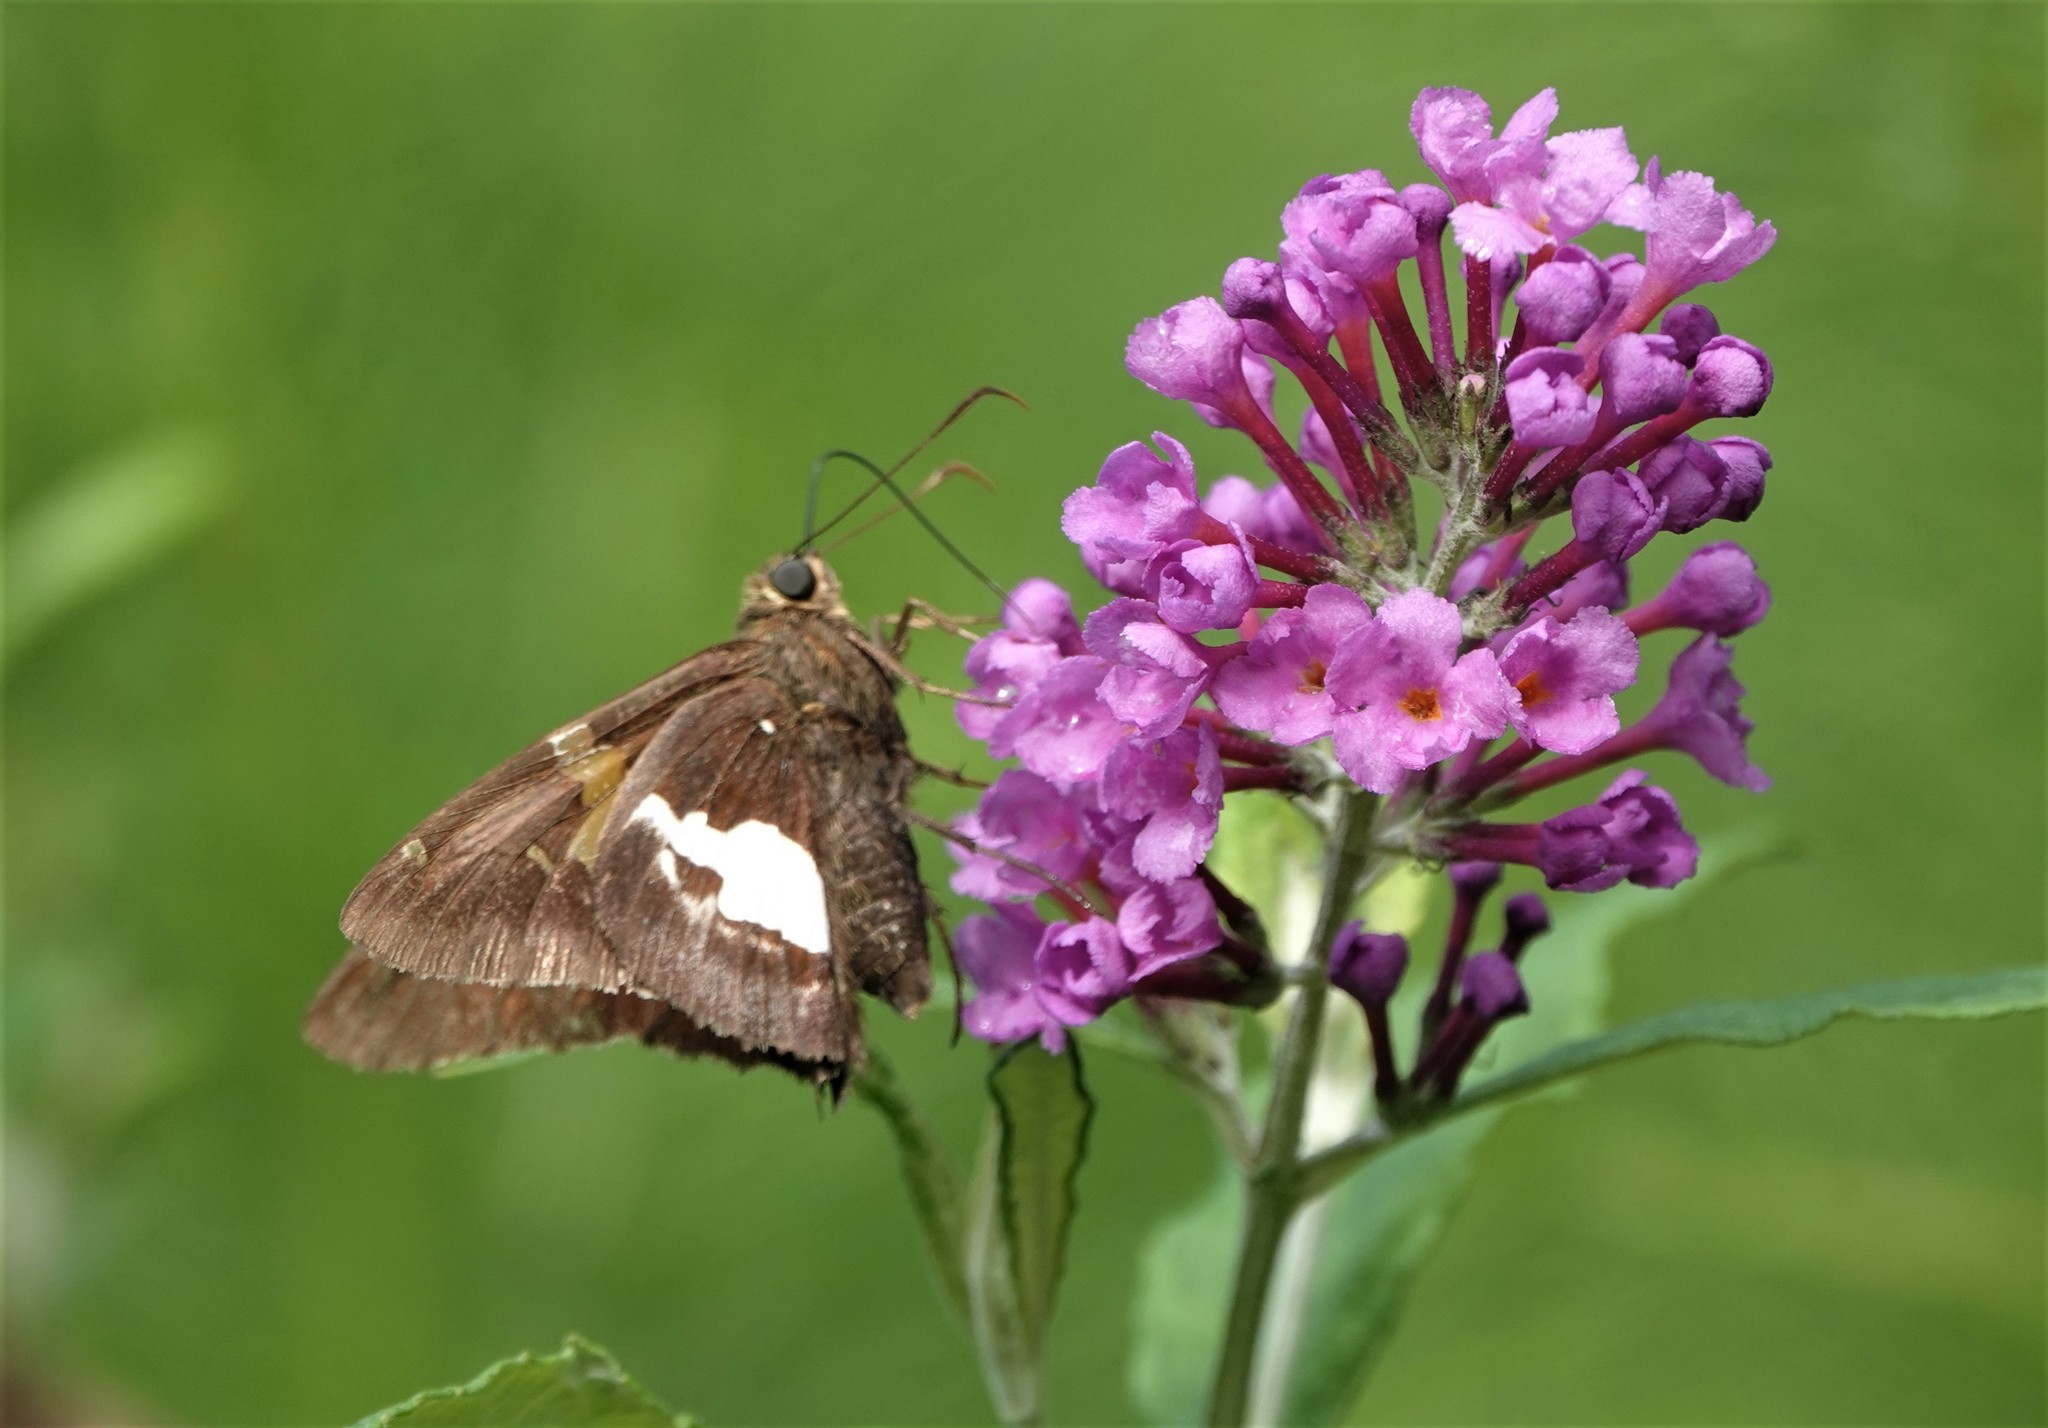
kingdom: Animalia
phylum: Arthropoda
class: Insecta
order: Lepidoptera
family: Hesperiidae
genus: Epargyreus
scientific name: Epargyreus clarus
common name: Silver-spotted skipper
